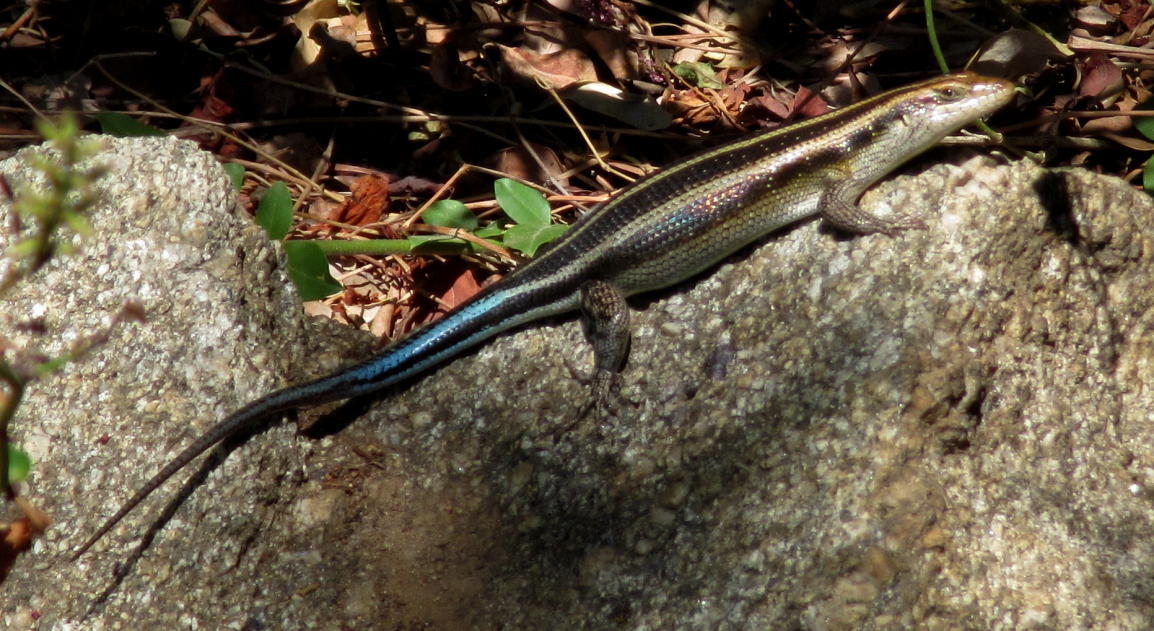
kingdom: Animalia
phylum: Chordata
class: Squamata
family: Scincidae
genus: Trachylepis
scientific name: Trachylepis margaritifera
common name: Rainbow skink
